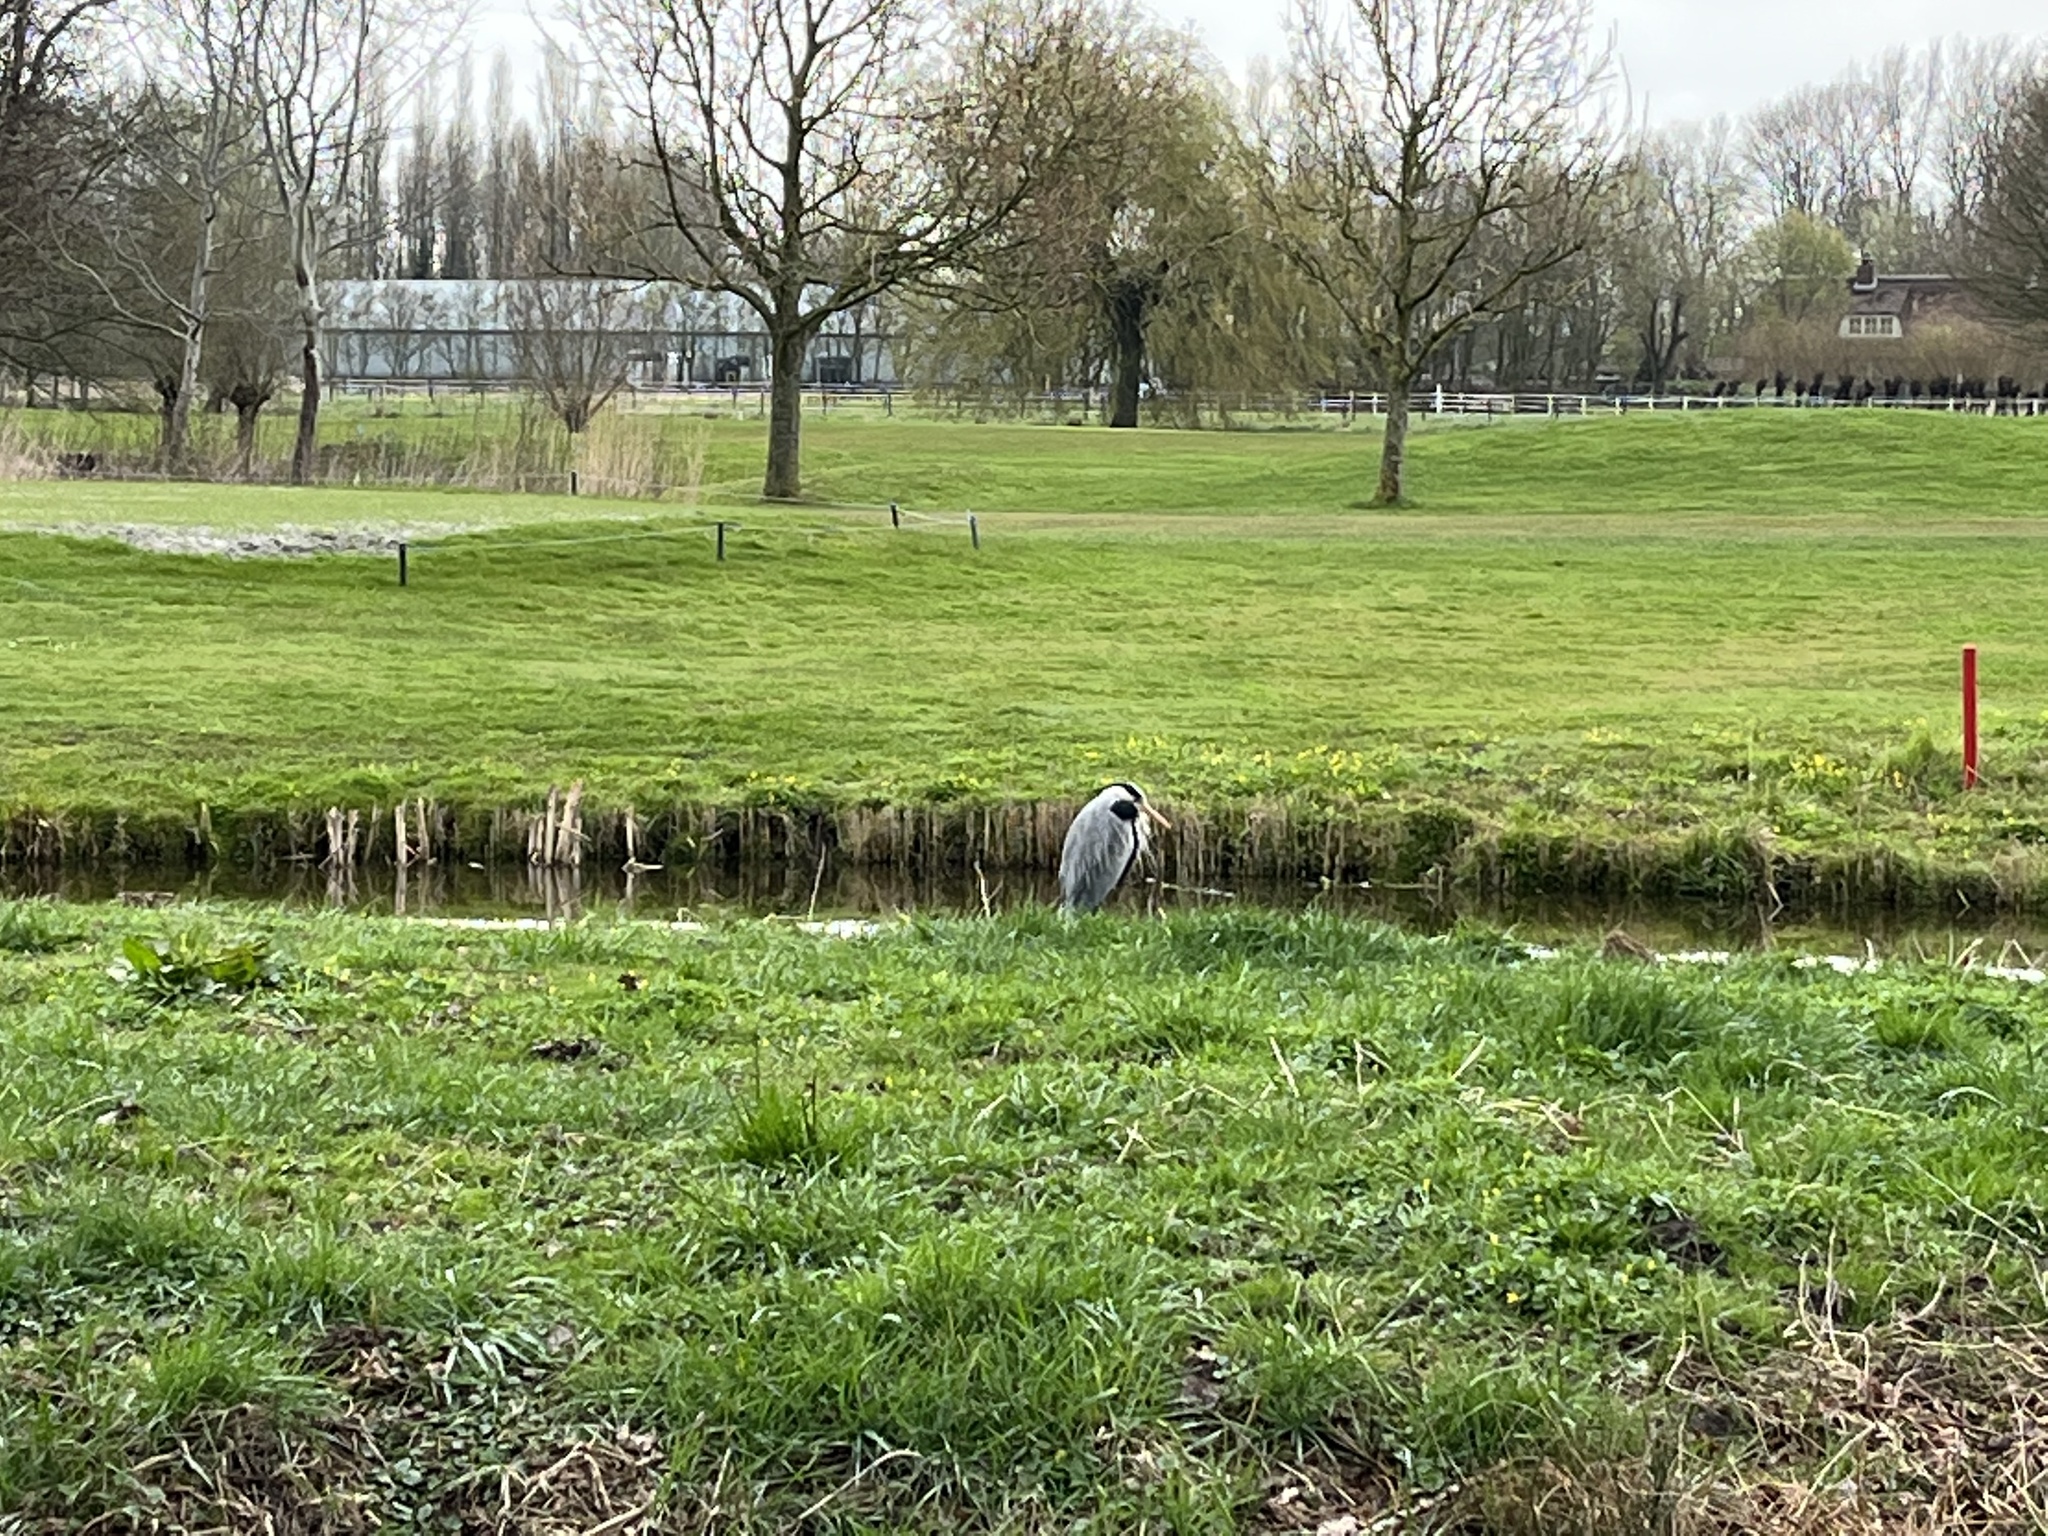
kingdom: Animalia
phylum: Chordata
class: Aves
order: Pelecaniformes
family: Ardeidae
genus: Ardea
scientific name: Ardea cinerea
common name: Grey heron
